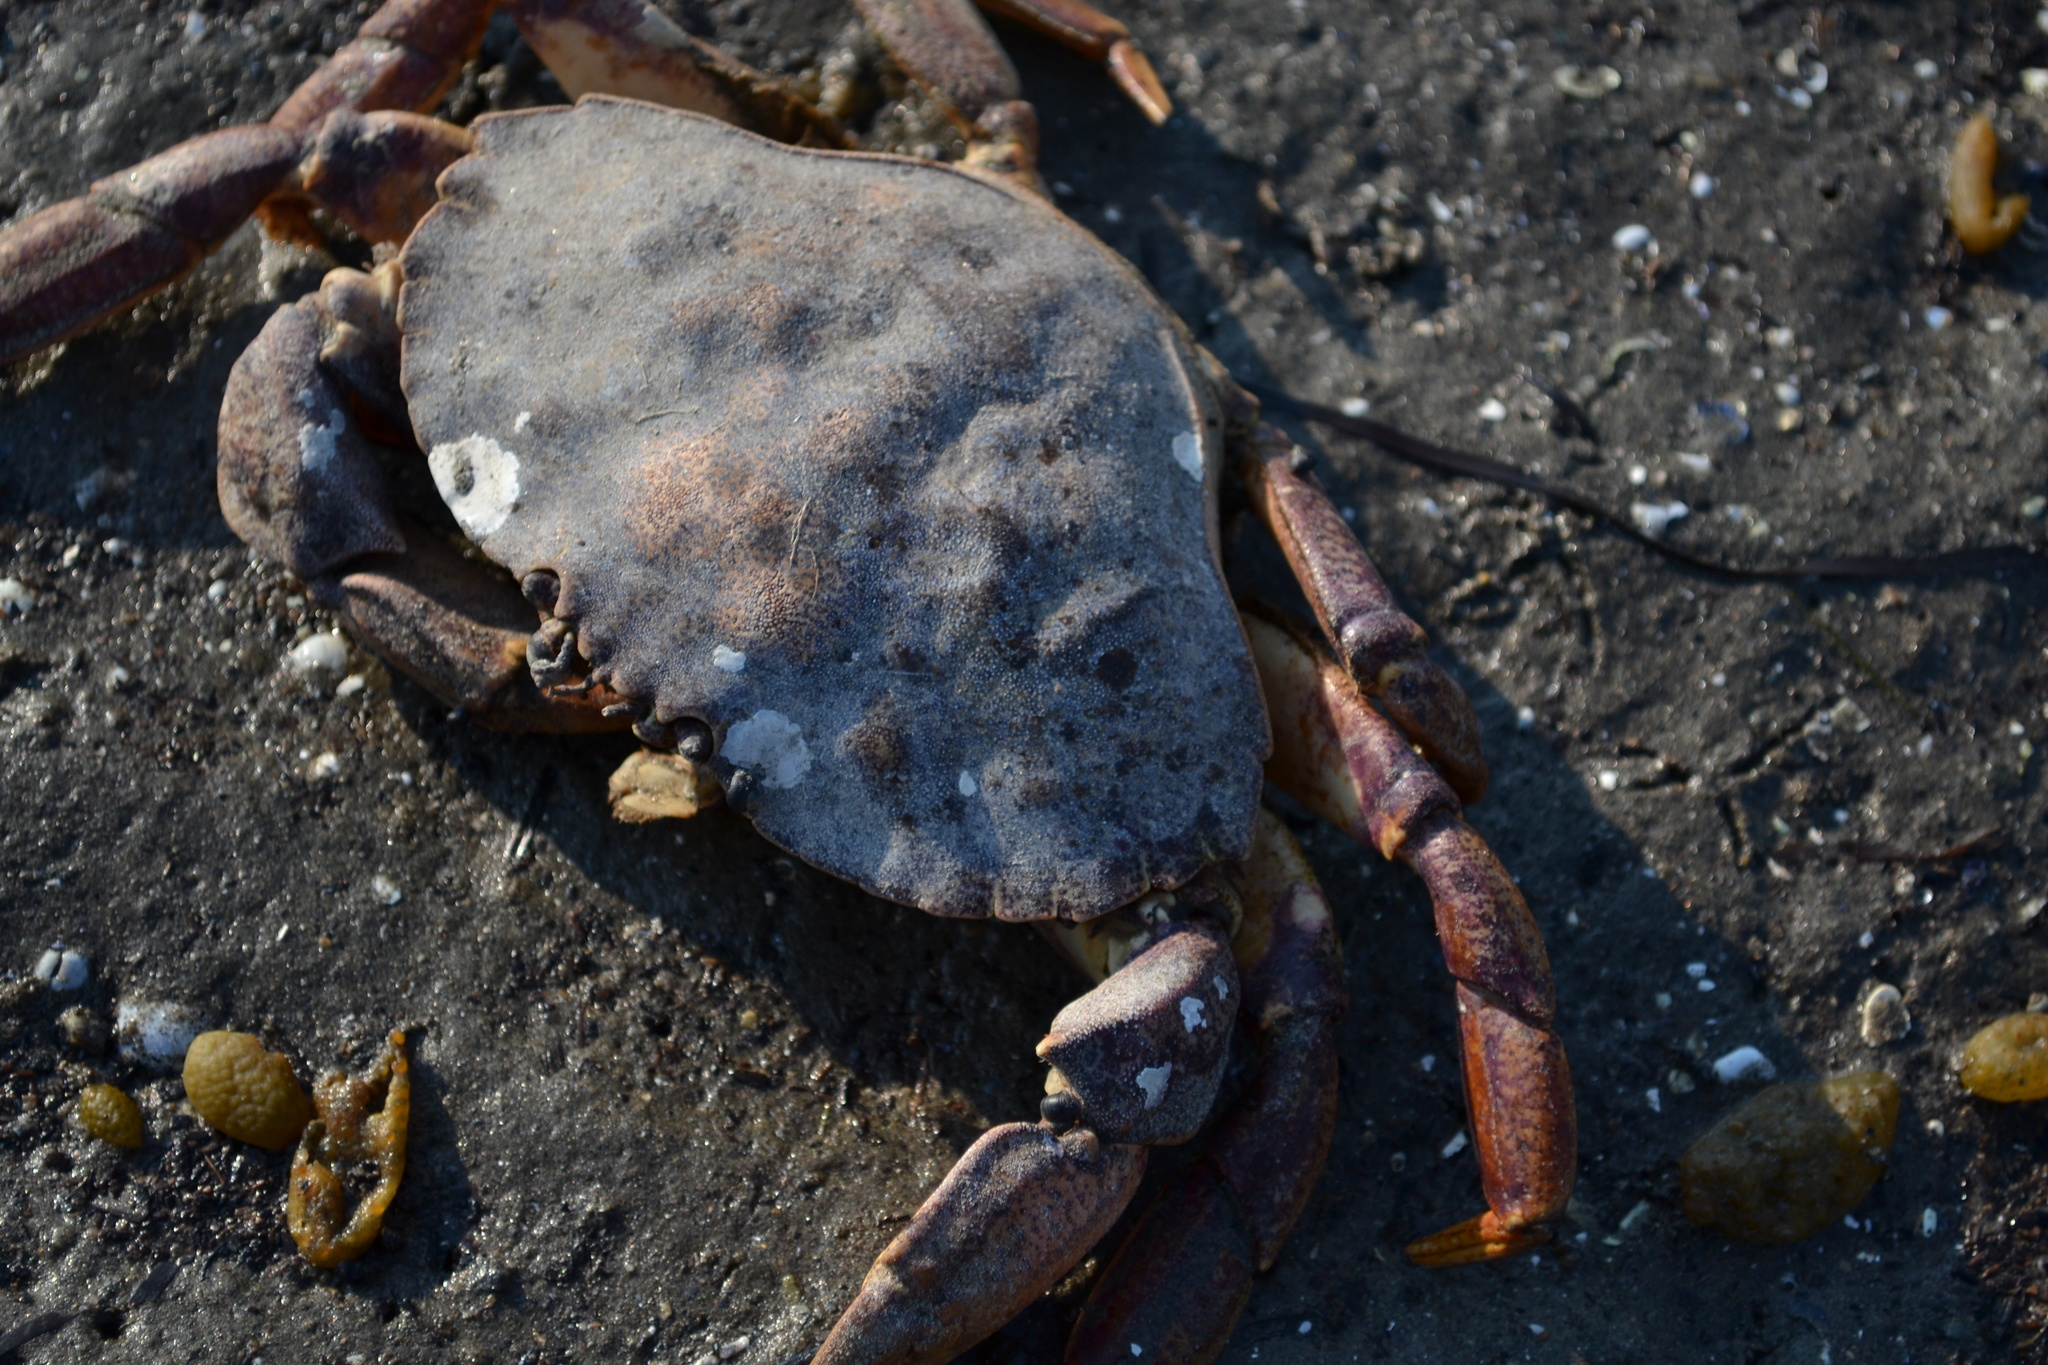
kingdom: Animalia
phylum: Arthropoda
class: Malacostraca
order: Decapoda
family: Cancridae
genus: Cancer
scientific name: Cancer irroratus
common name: Atlantic rock crab
